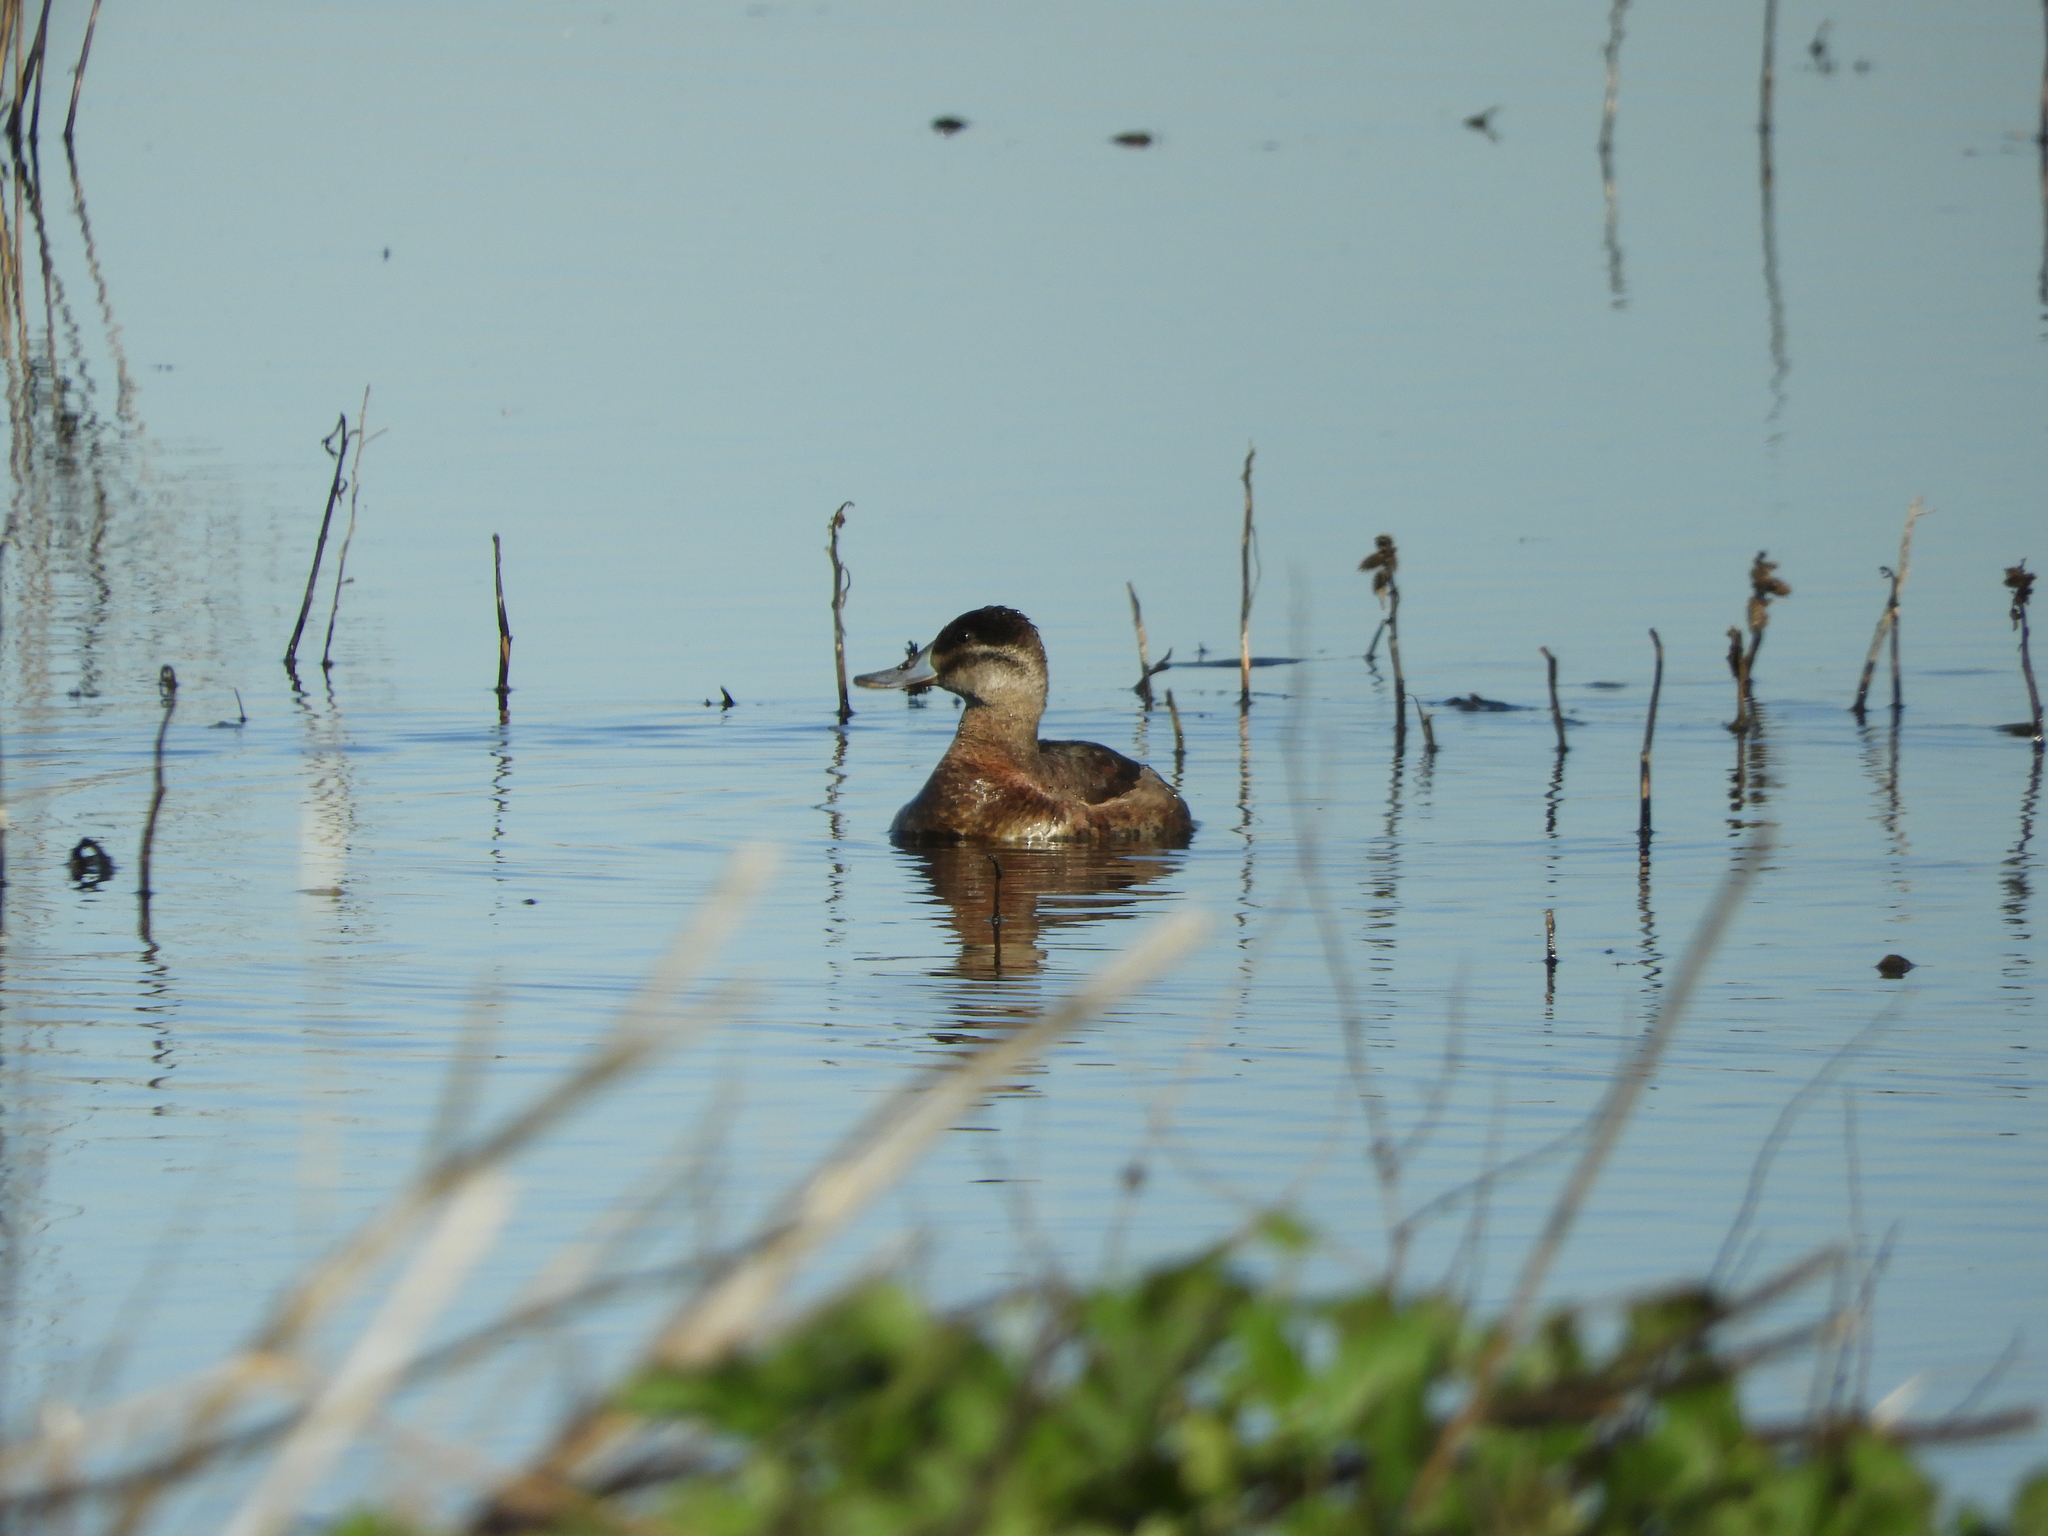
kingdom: Animalia
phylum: Chordata
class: Aves
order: Anseriformes
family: Anatidae
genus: Oxyura
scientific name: Oxyura jamaicensis
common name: Ruddy duck
